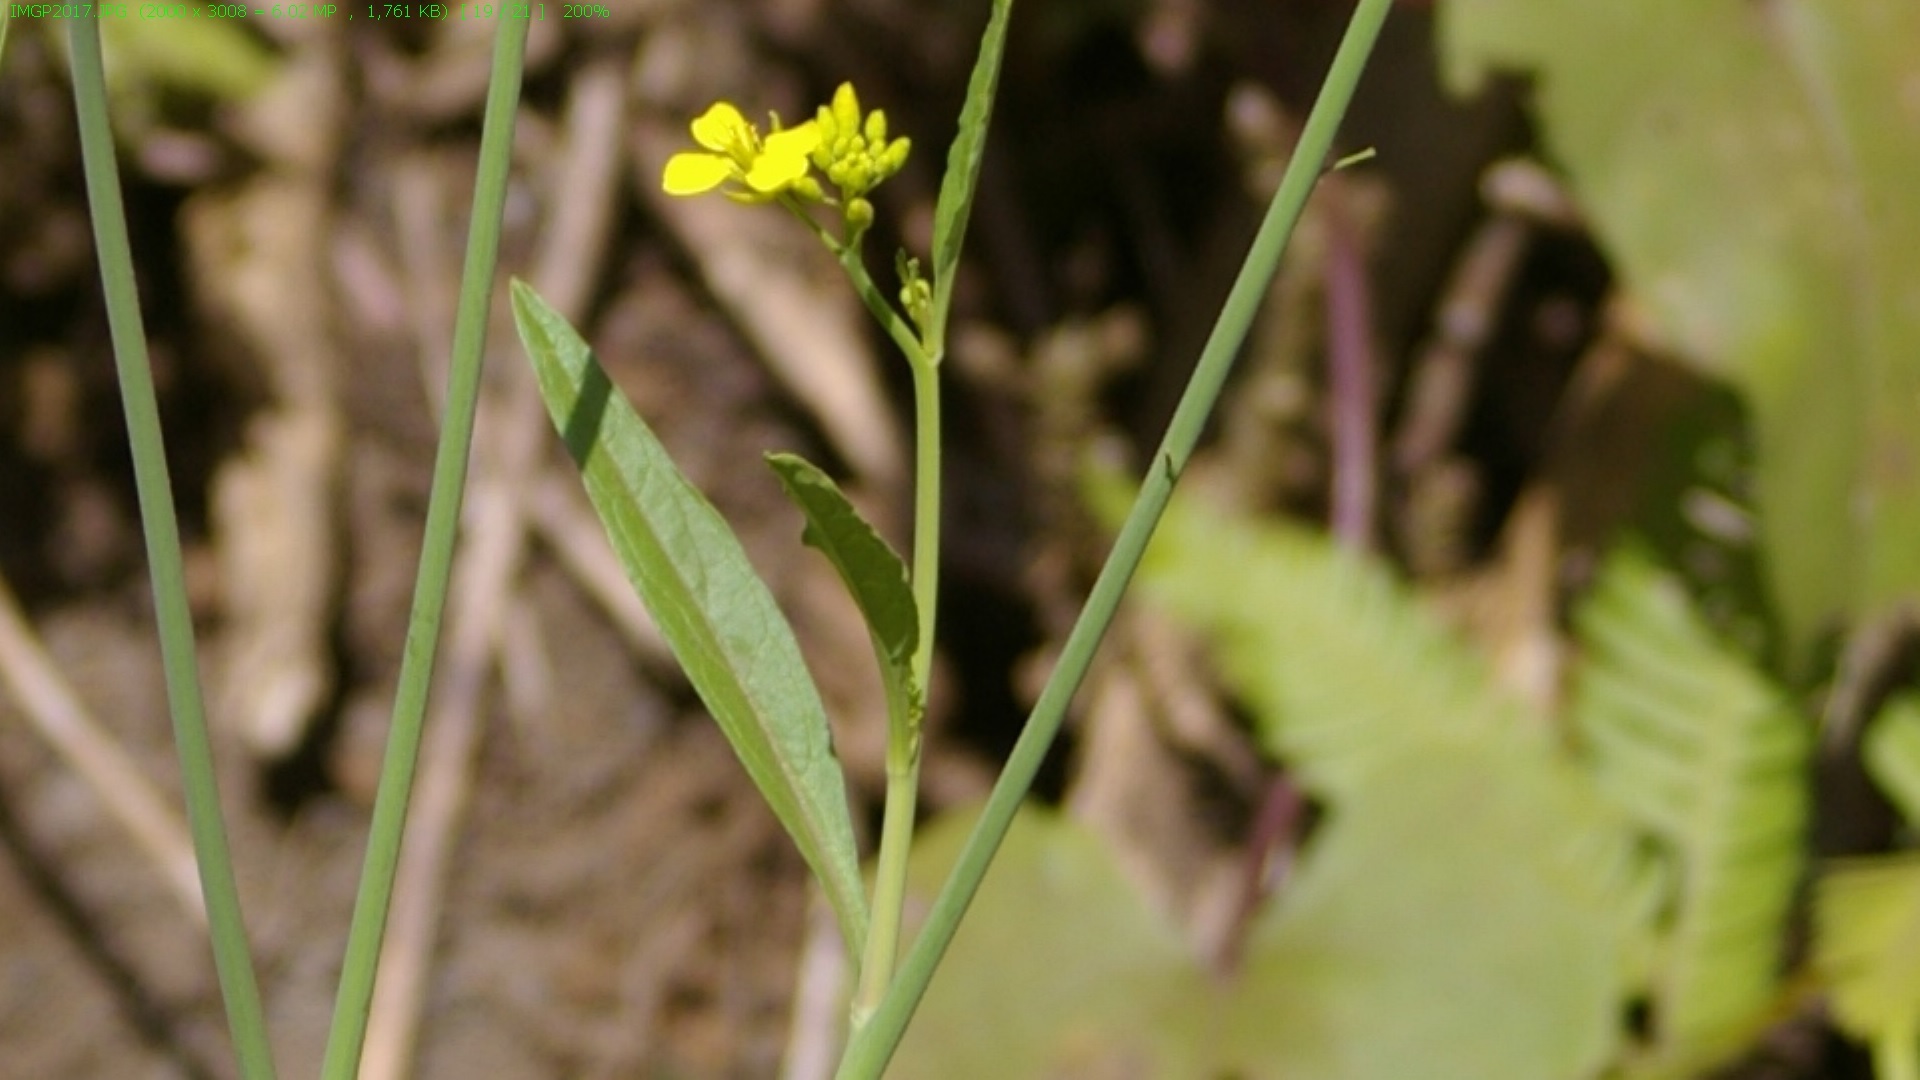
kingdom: Plantae
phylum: Tracheophyta
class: Magnoliopsida
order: Brassicales
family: Brassicaceae
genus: Brassica
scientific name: Brassica rapa
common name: Field mustard
